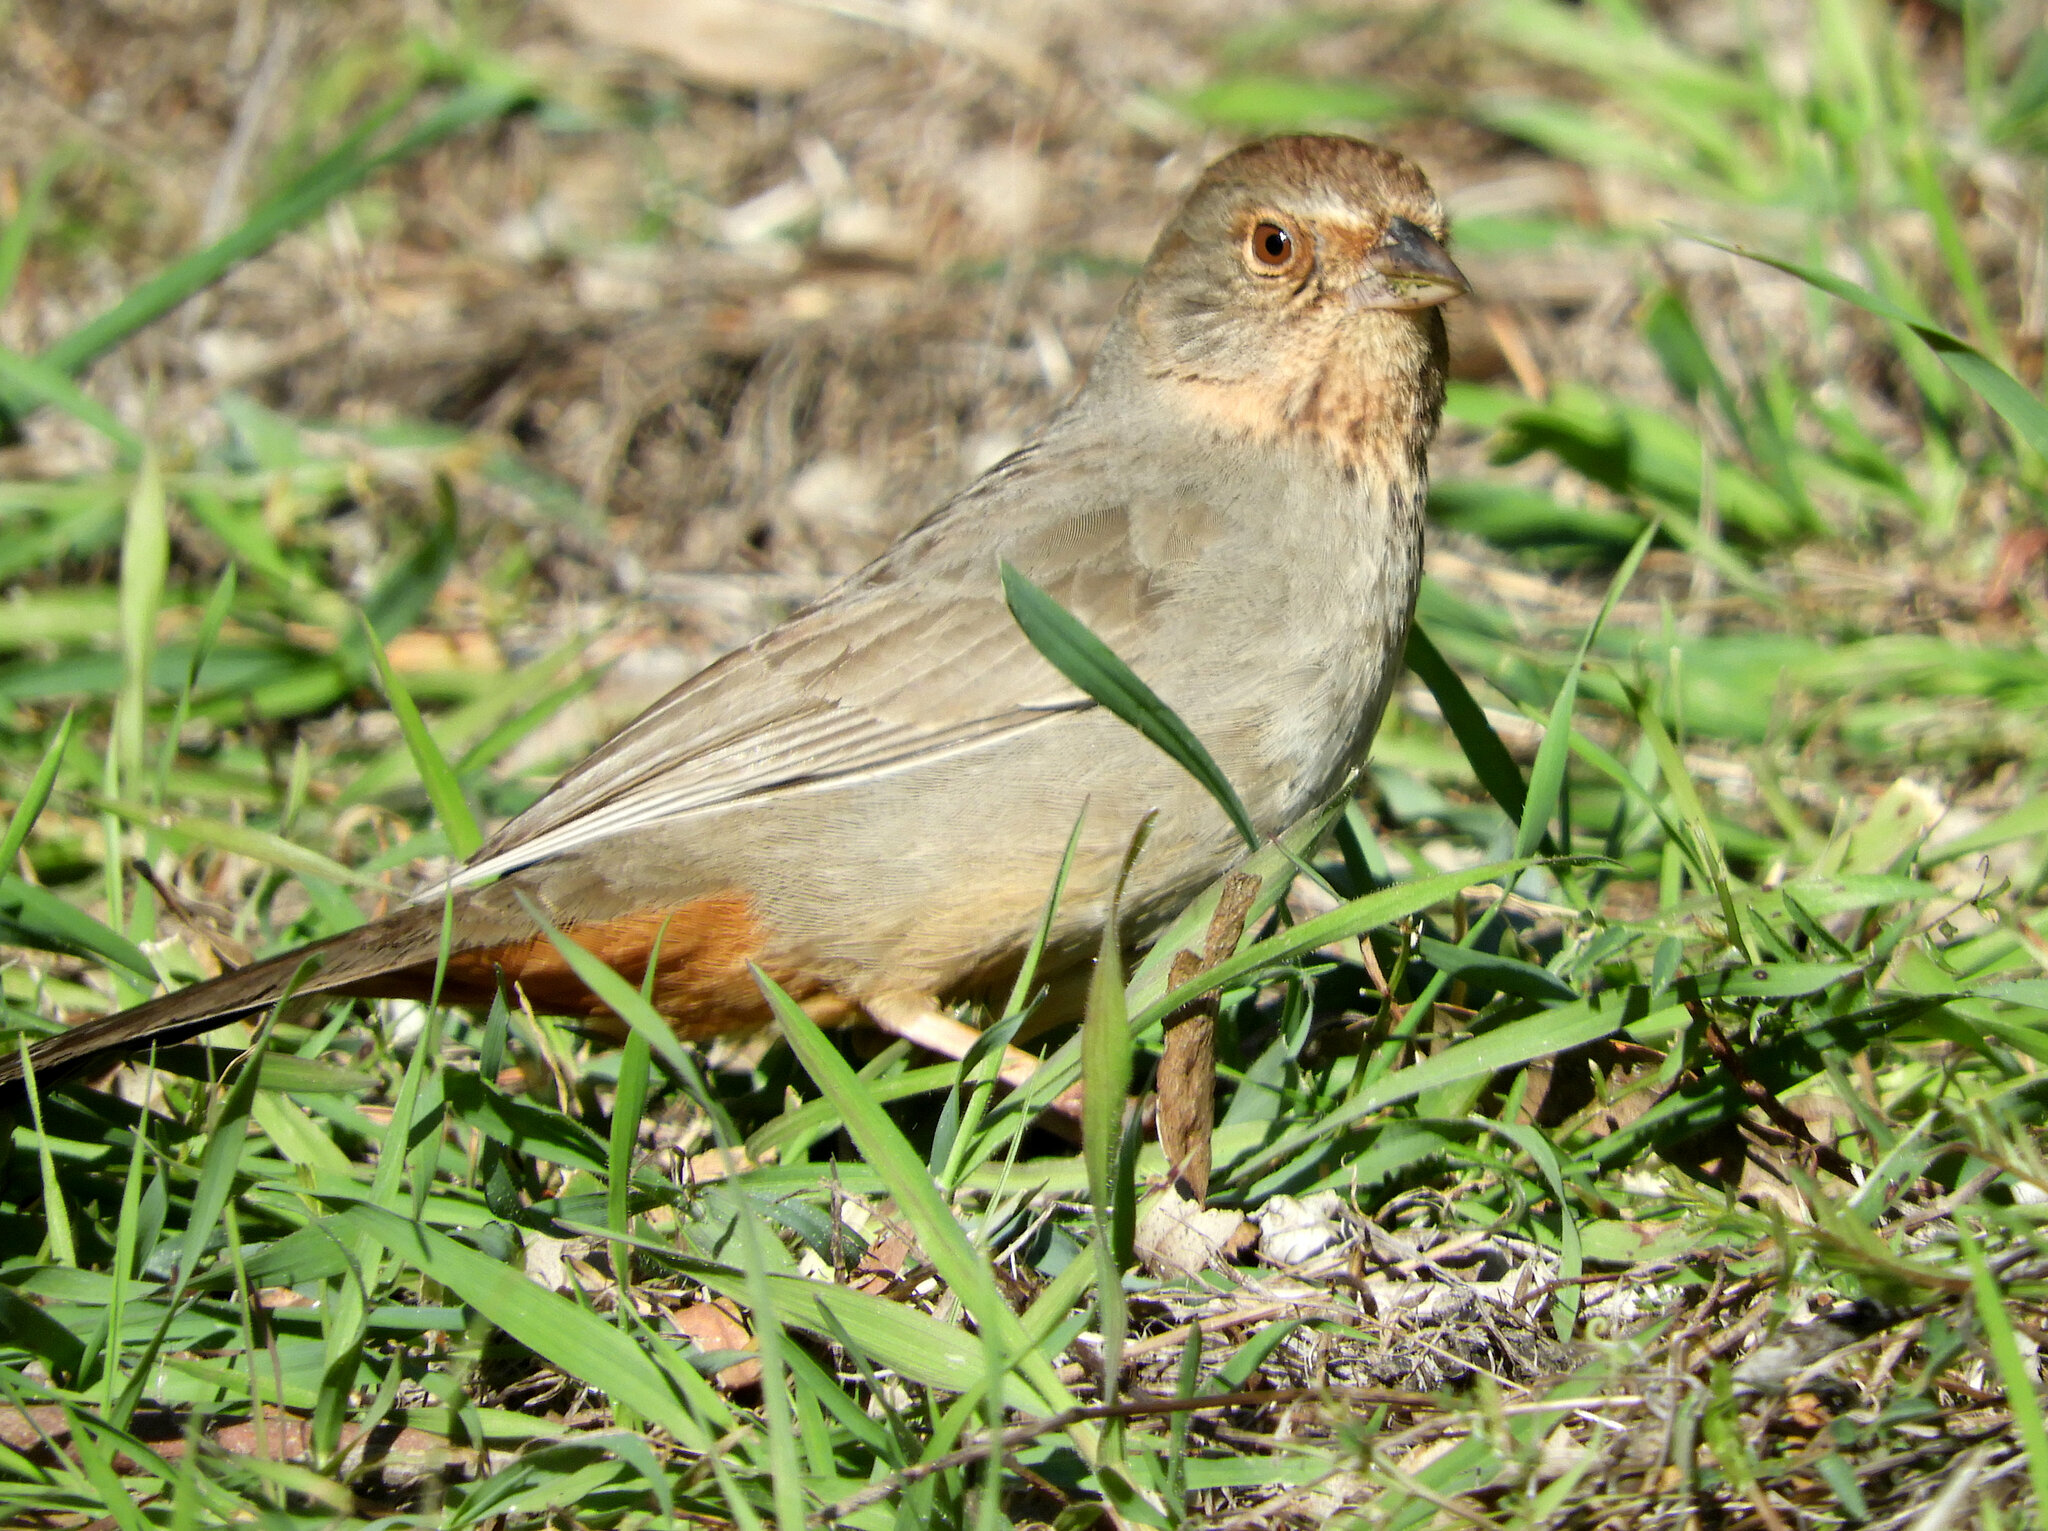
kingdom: Animalia
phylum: Chordata
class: Aves
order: Passeriformes
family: Passerellidae
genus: Melozone
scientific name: Melozone crissalis
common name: California towhee
